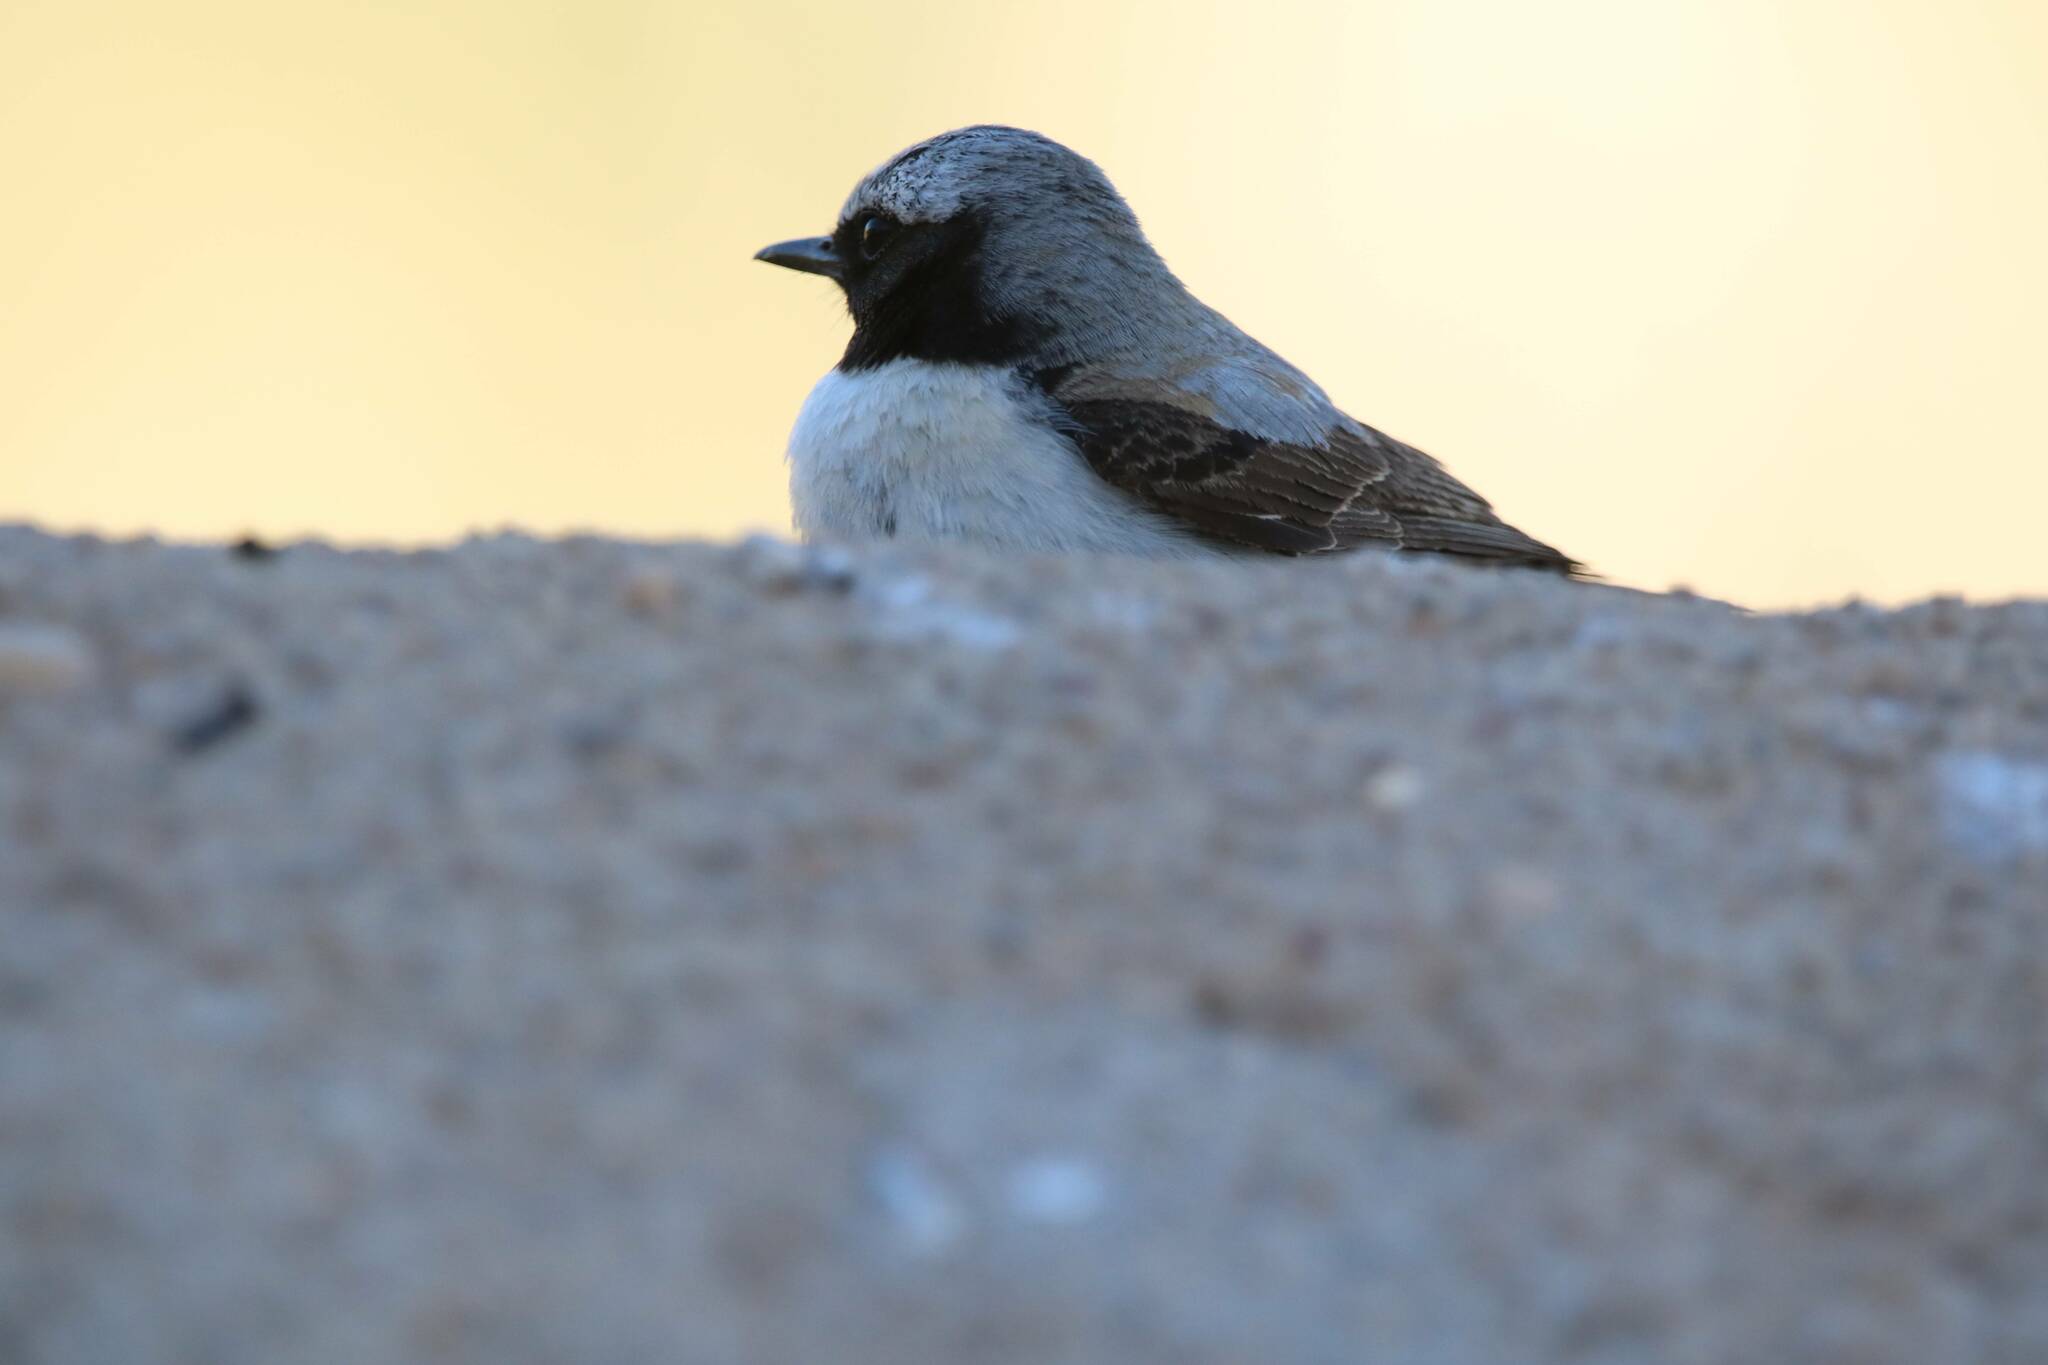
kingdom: Animalia
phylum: Chordata
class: Aves
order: Passeriformes
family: Muscicapidae
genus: Oenanthe
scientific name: Oenanthe oenanthe
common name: Northern wheatear
